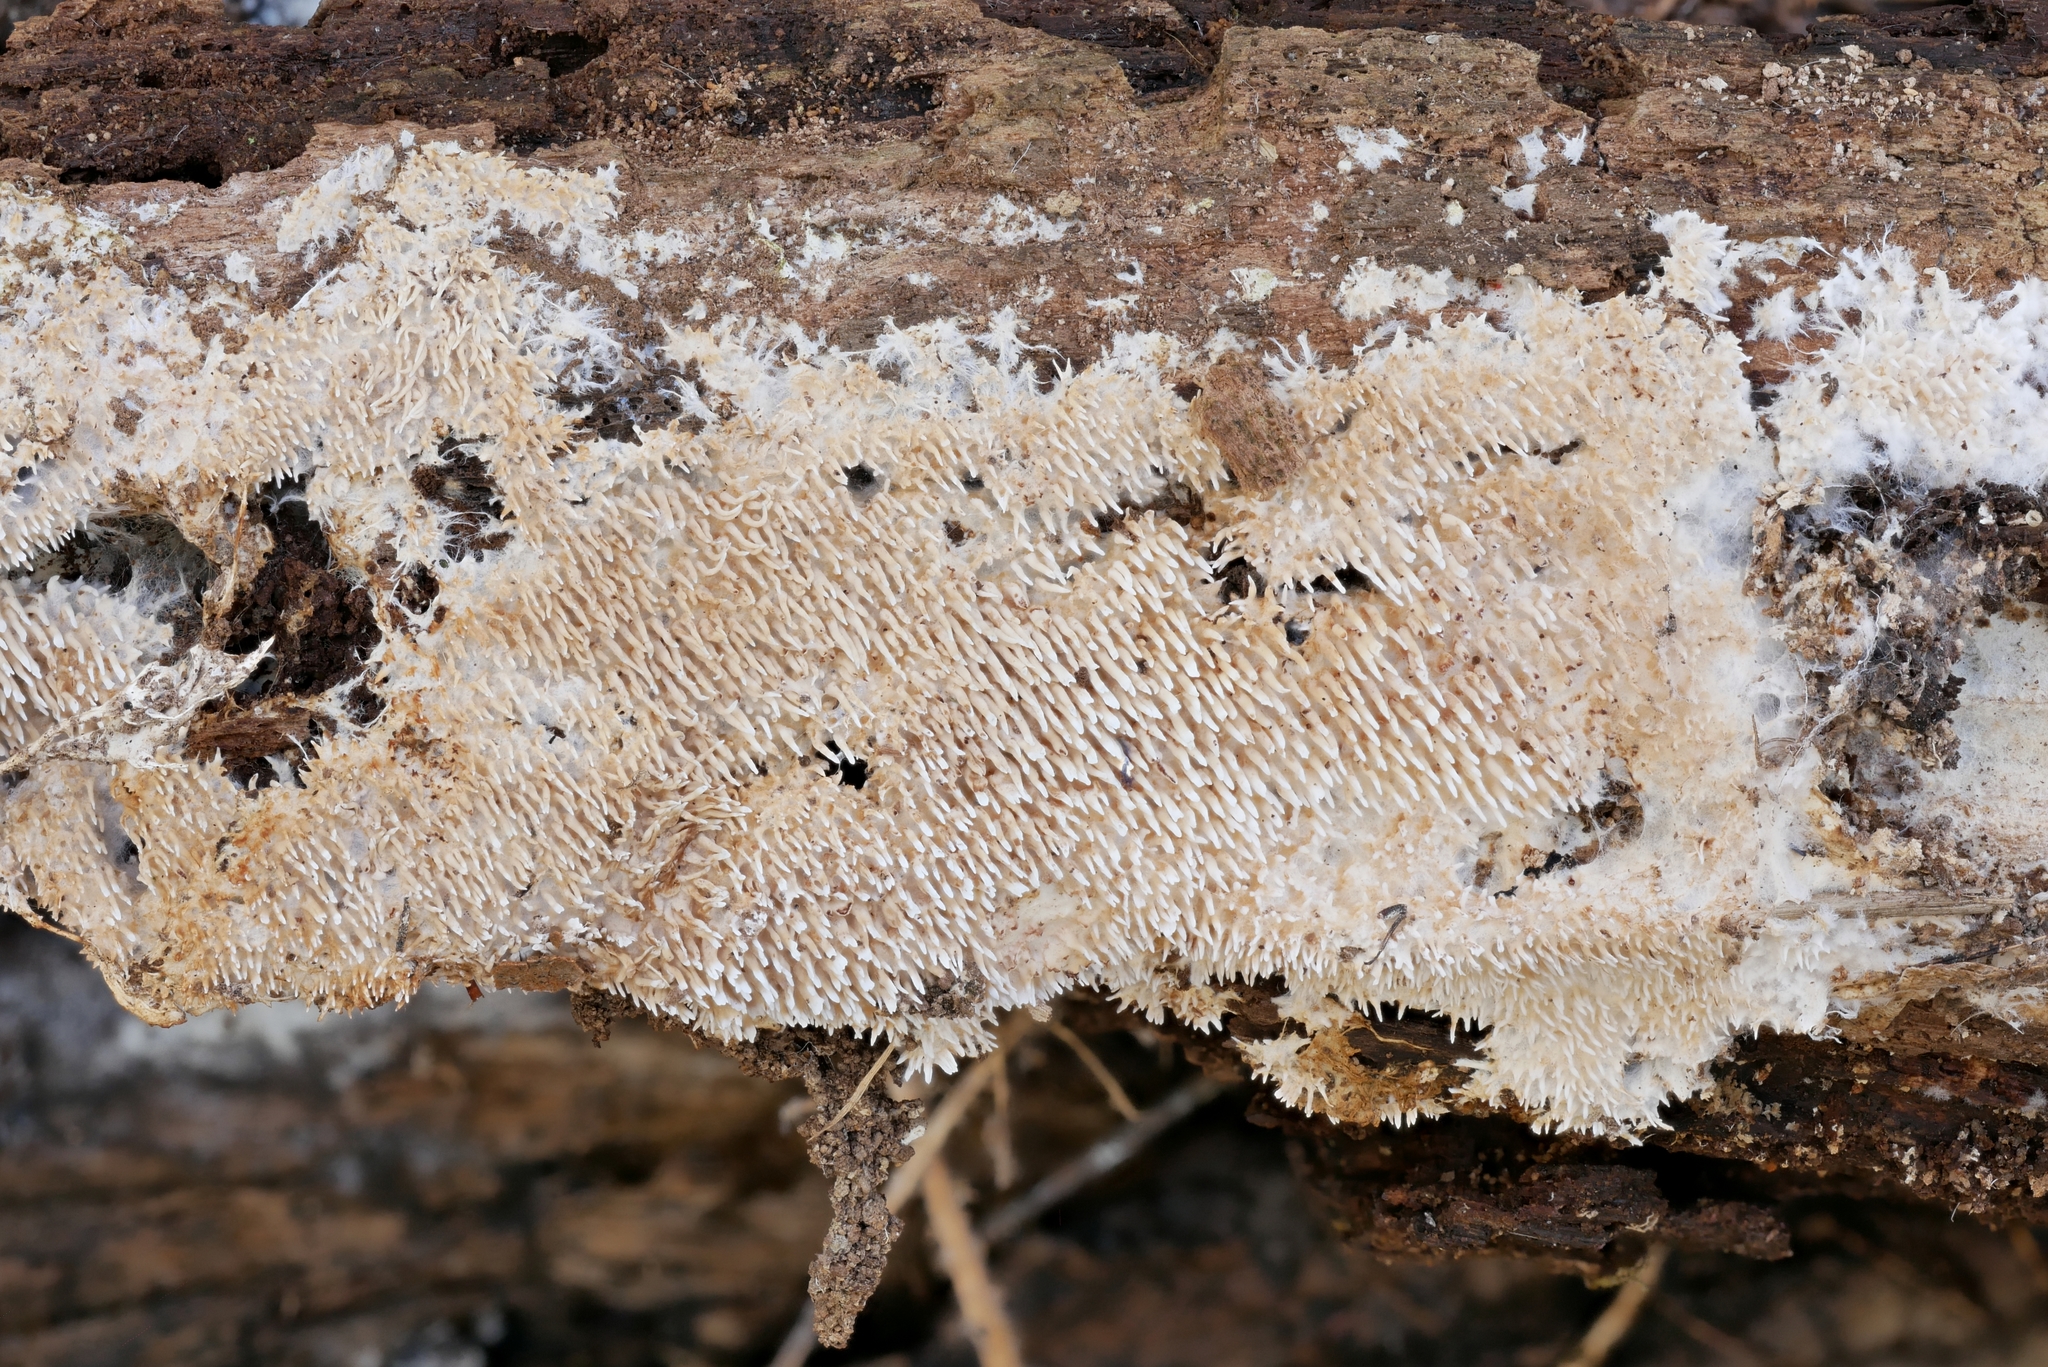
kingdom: Fungi
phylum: Basidiomycota
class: Agaricomycetes
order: Gomphales
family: Lentariaceae
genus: Hydnocristella
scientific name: Hydnocristella himantia
